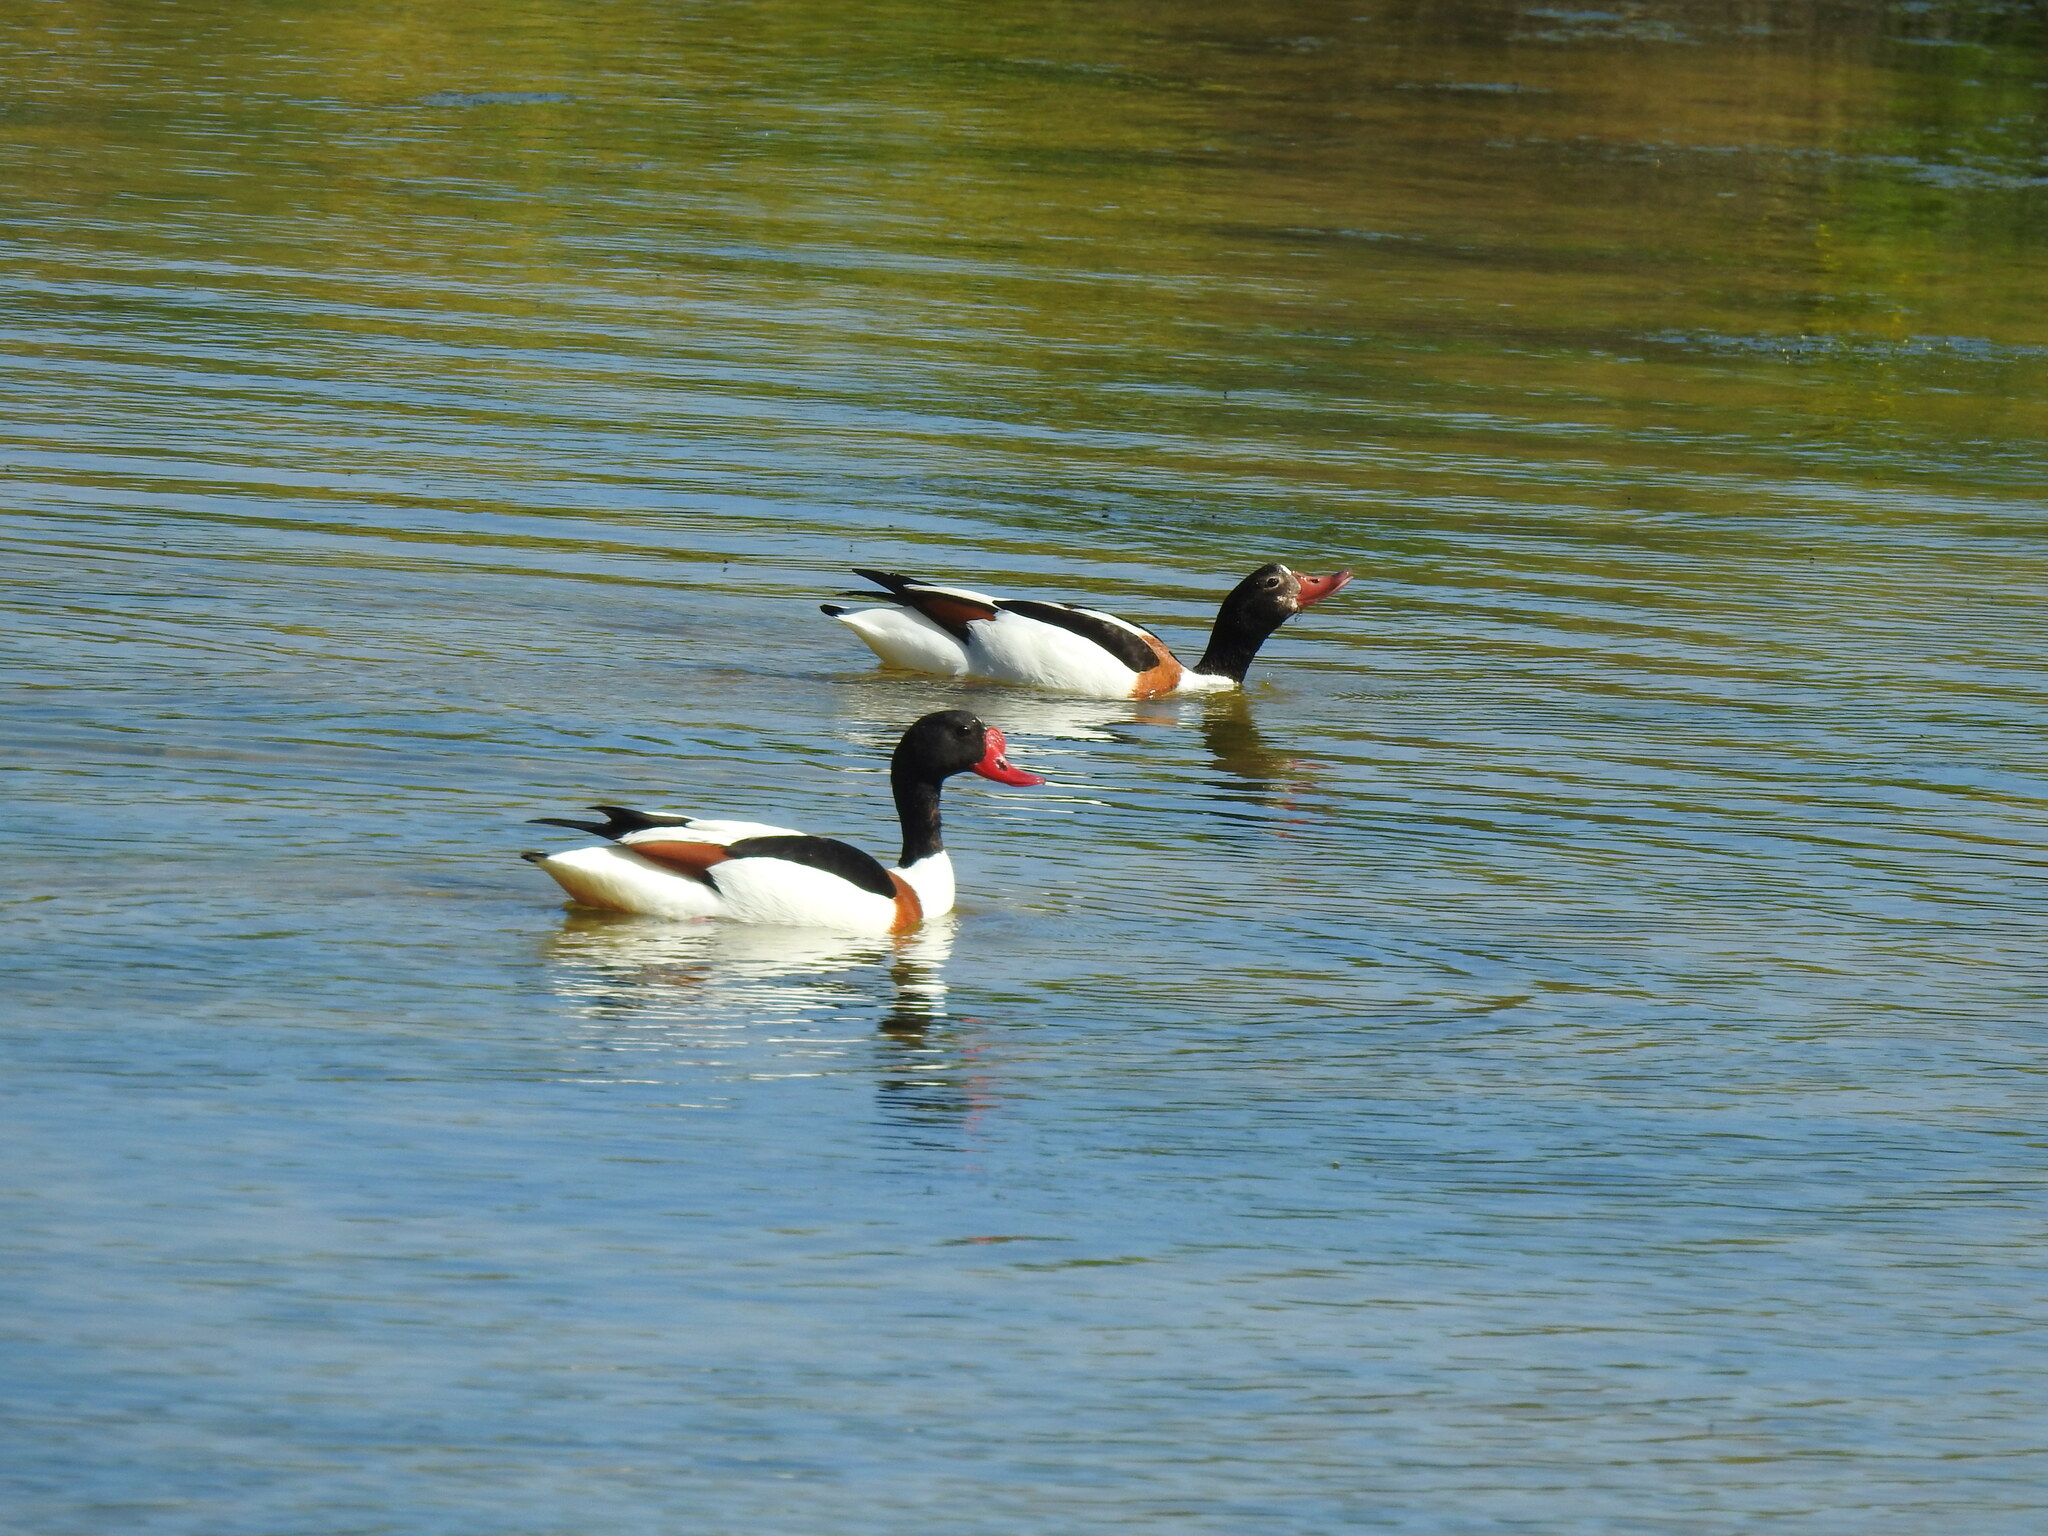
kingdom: Animalia
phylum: Chordata
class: Aves
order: Anseriformes
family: Anatidae
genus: Tadorna
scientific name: Tadorna tadorna
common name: Common shelduck
